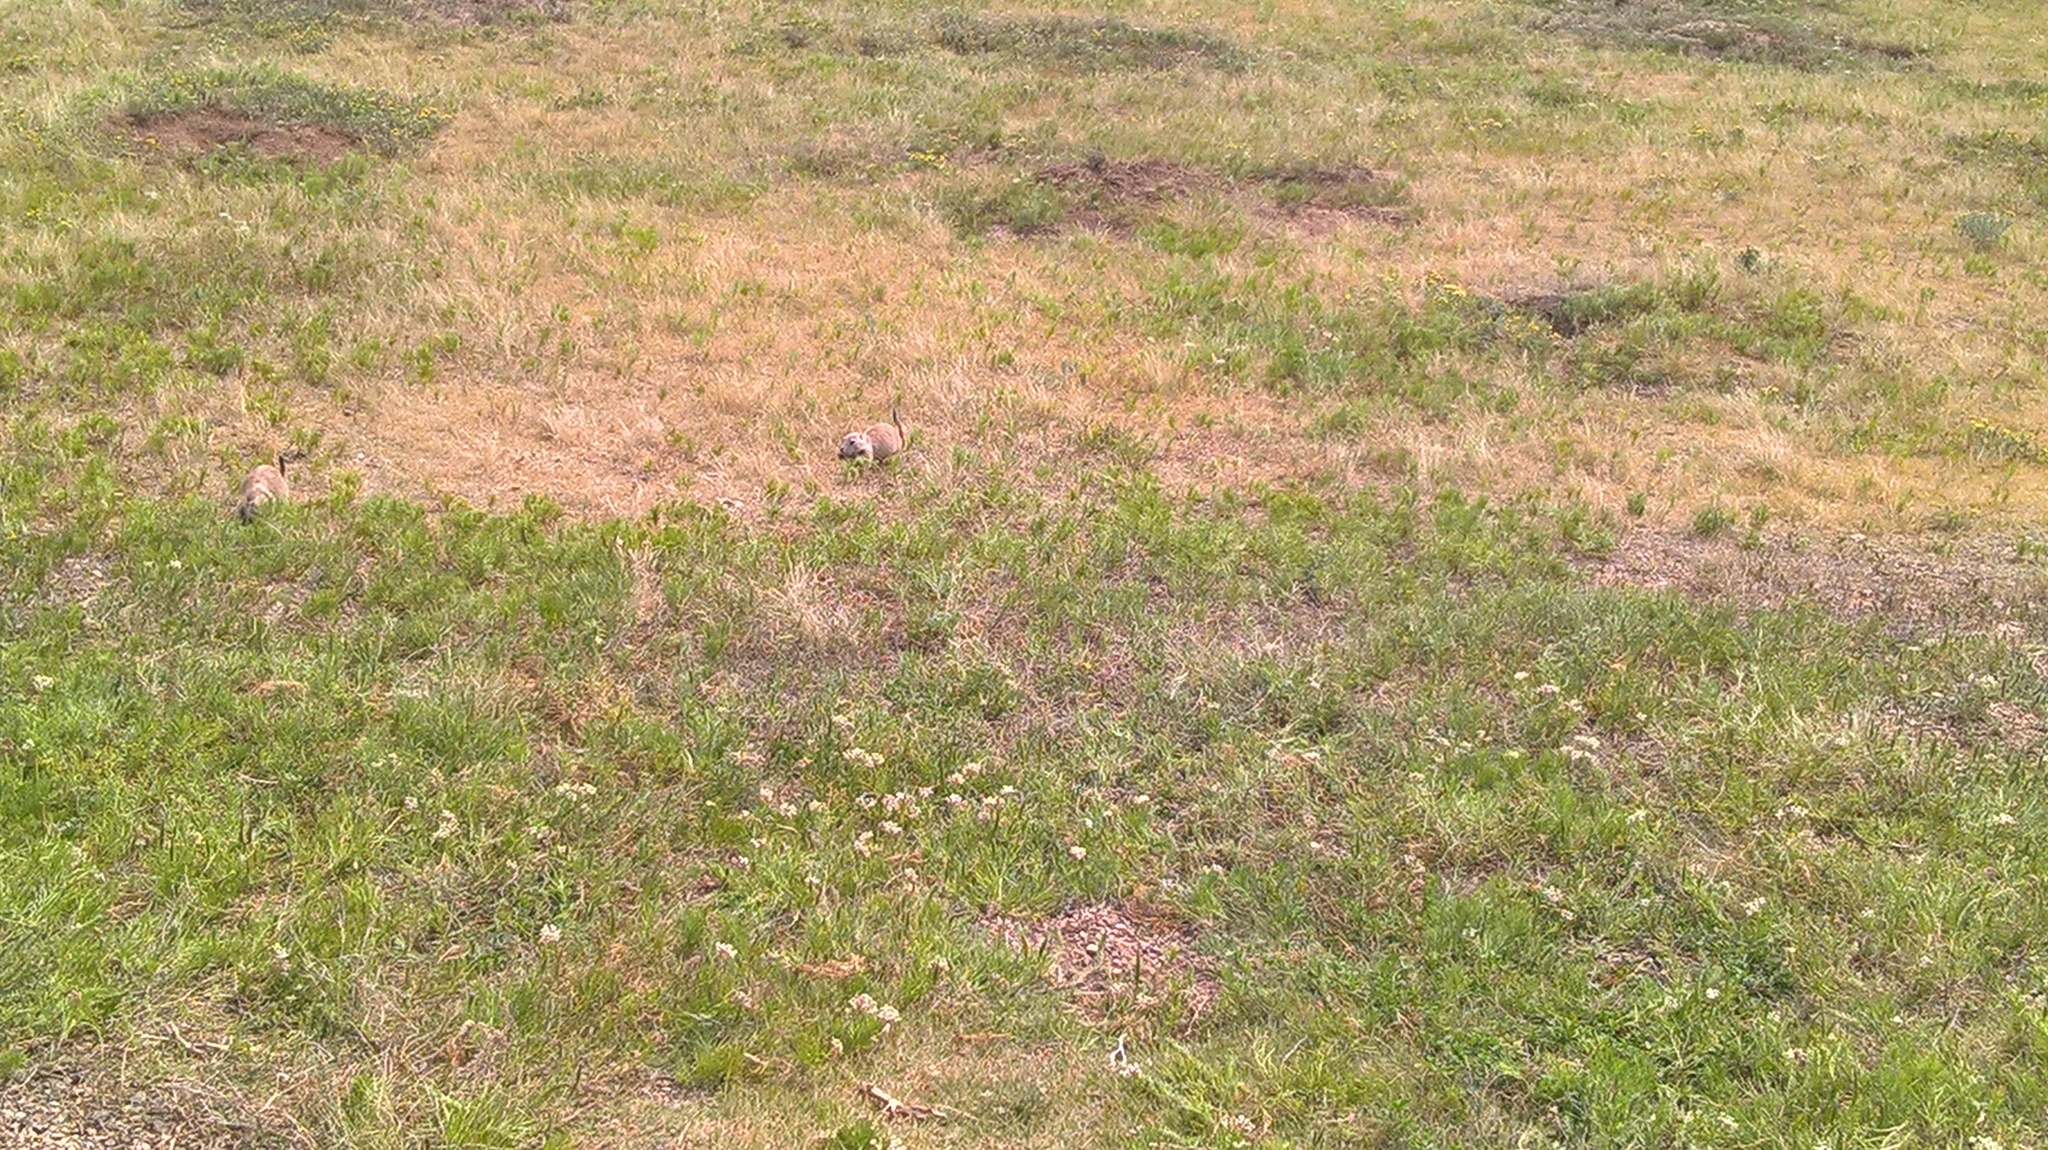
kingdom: Animalia
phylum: Chordata
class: Mammalia
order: Rodentia
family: Sciuridae
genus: Cynomys
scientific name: Cynomys ludovicianus
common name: Black-tailed prairie dog
